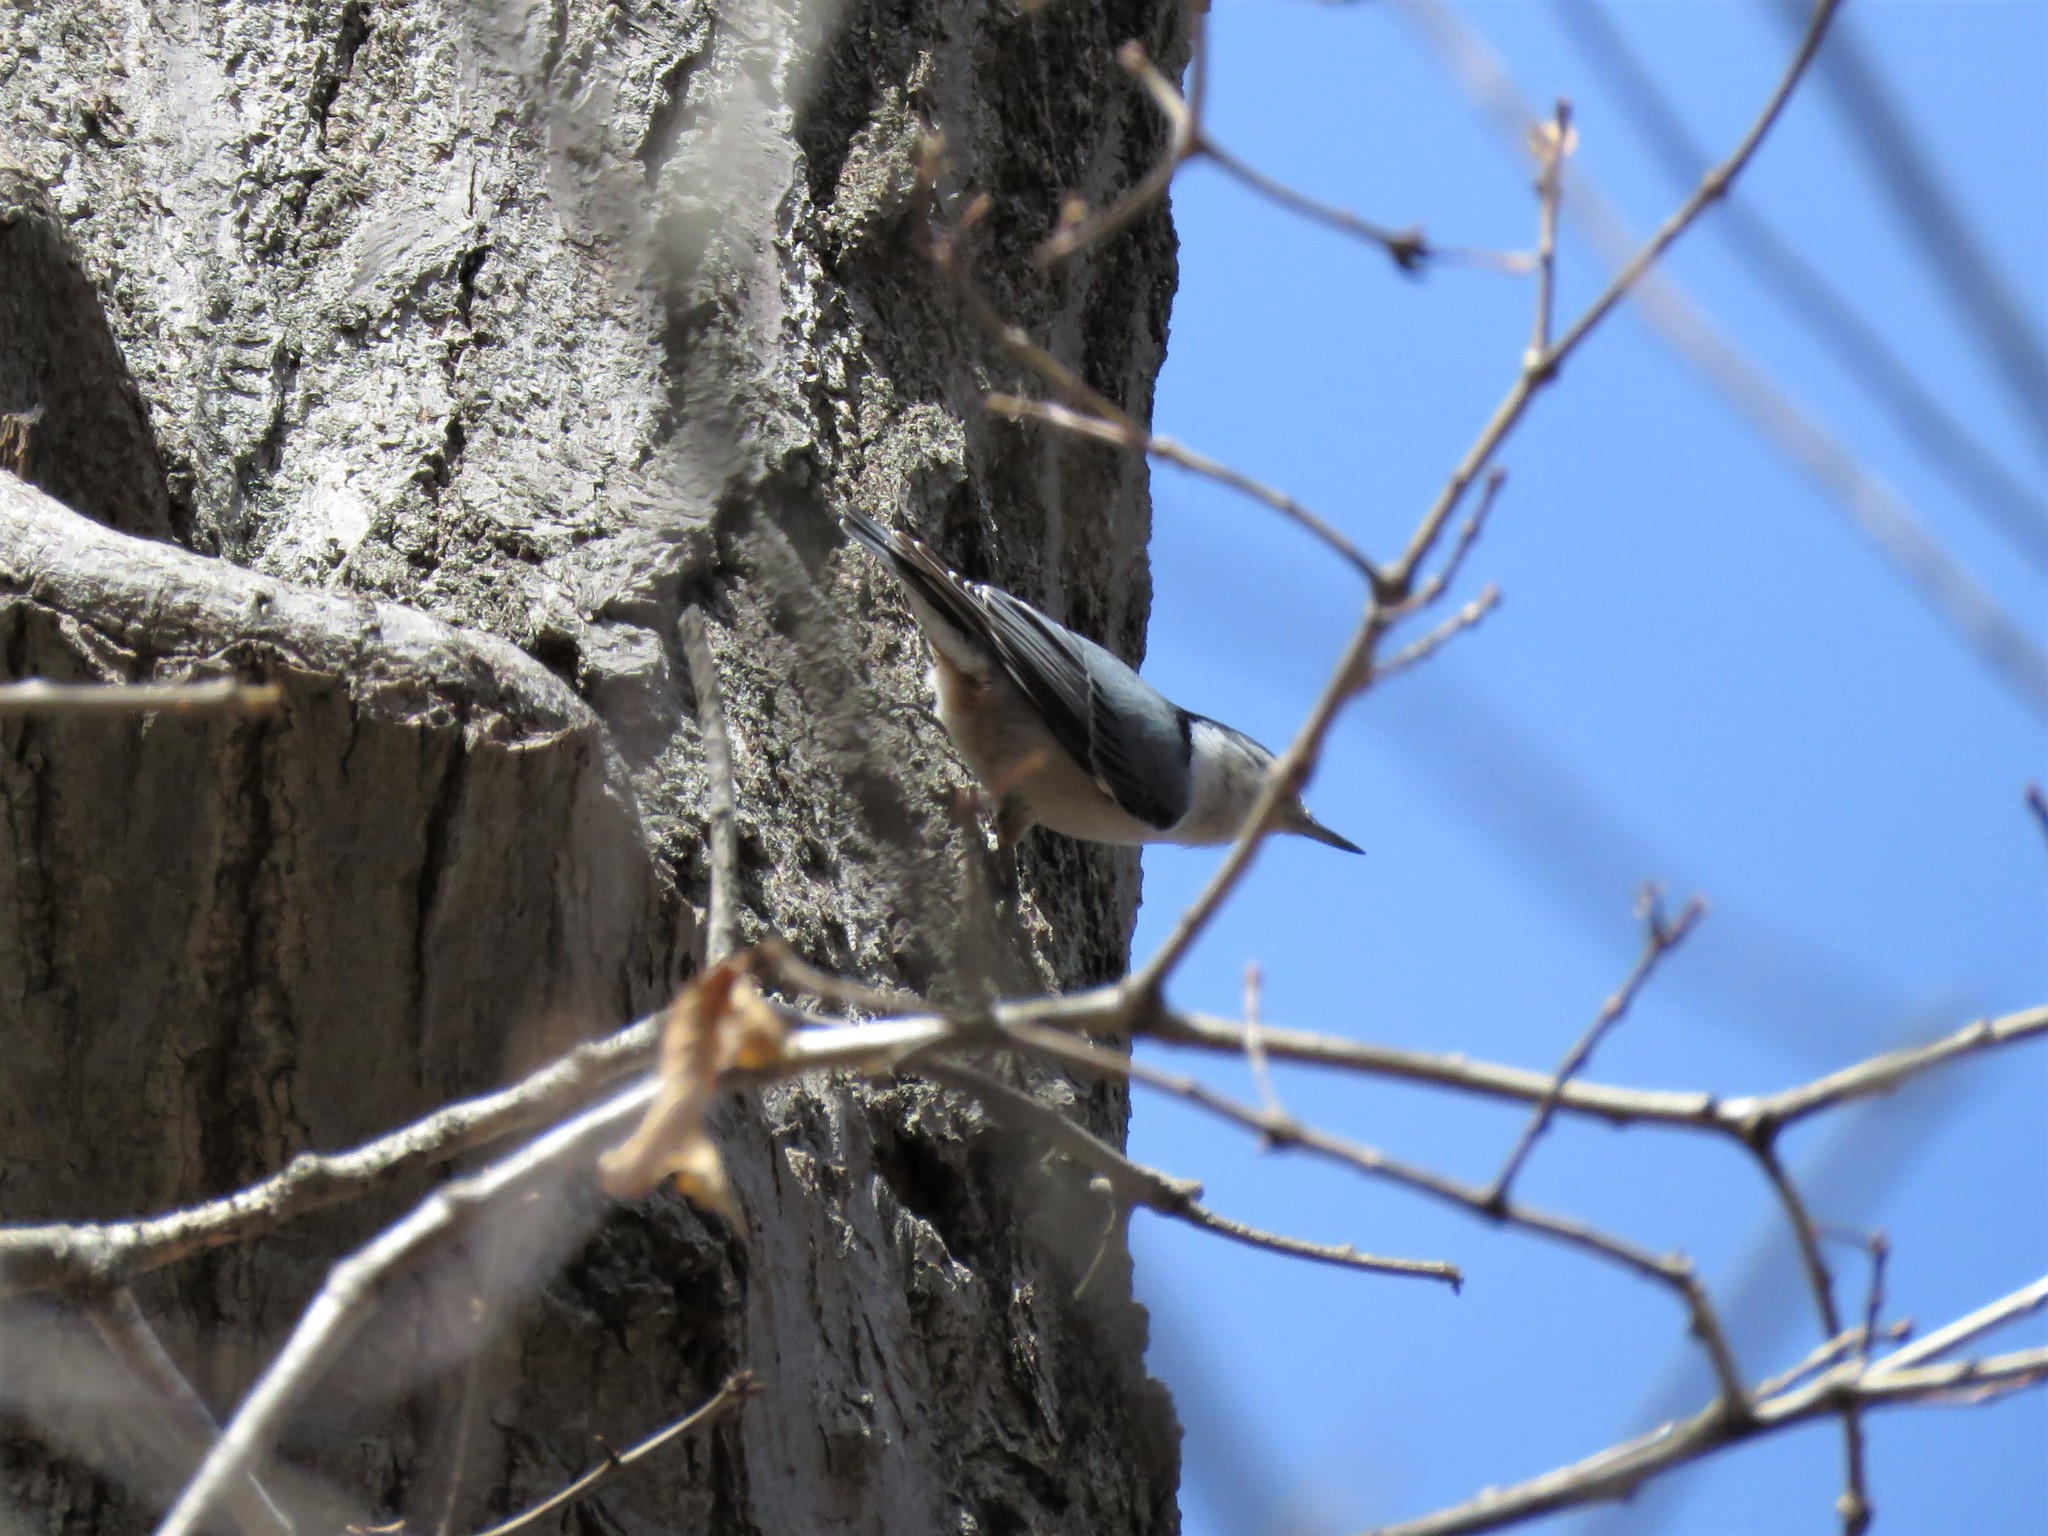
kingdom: Animalia
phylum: Chordata
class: Aves
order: Passeriformes
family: Sittidae
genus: Sitta
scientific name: Sitta carolinensis
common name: White-breasted nuthatch
